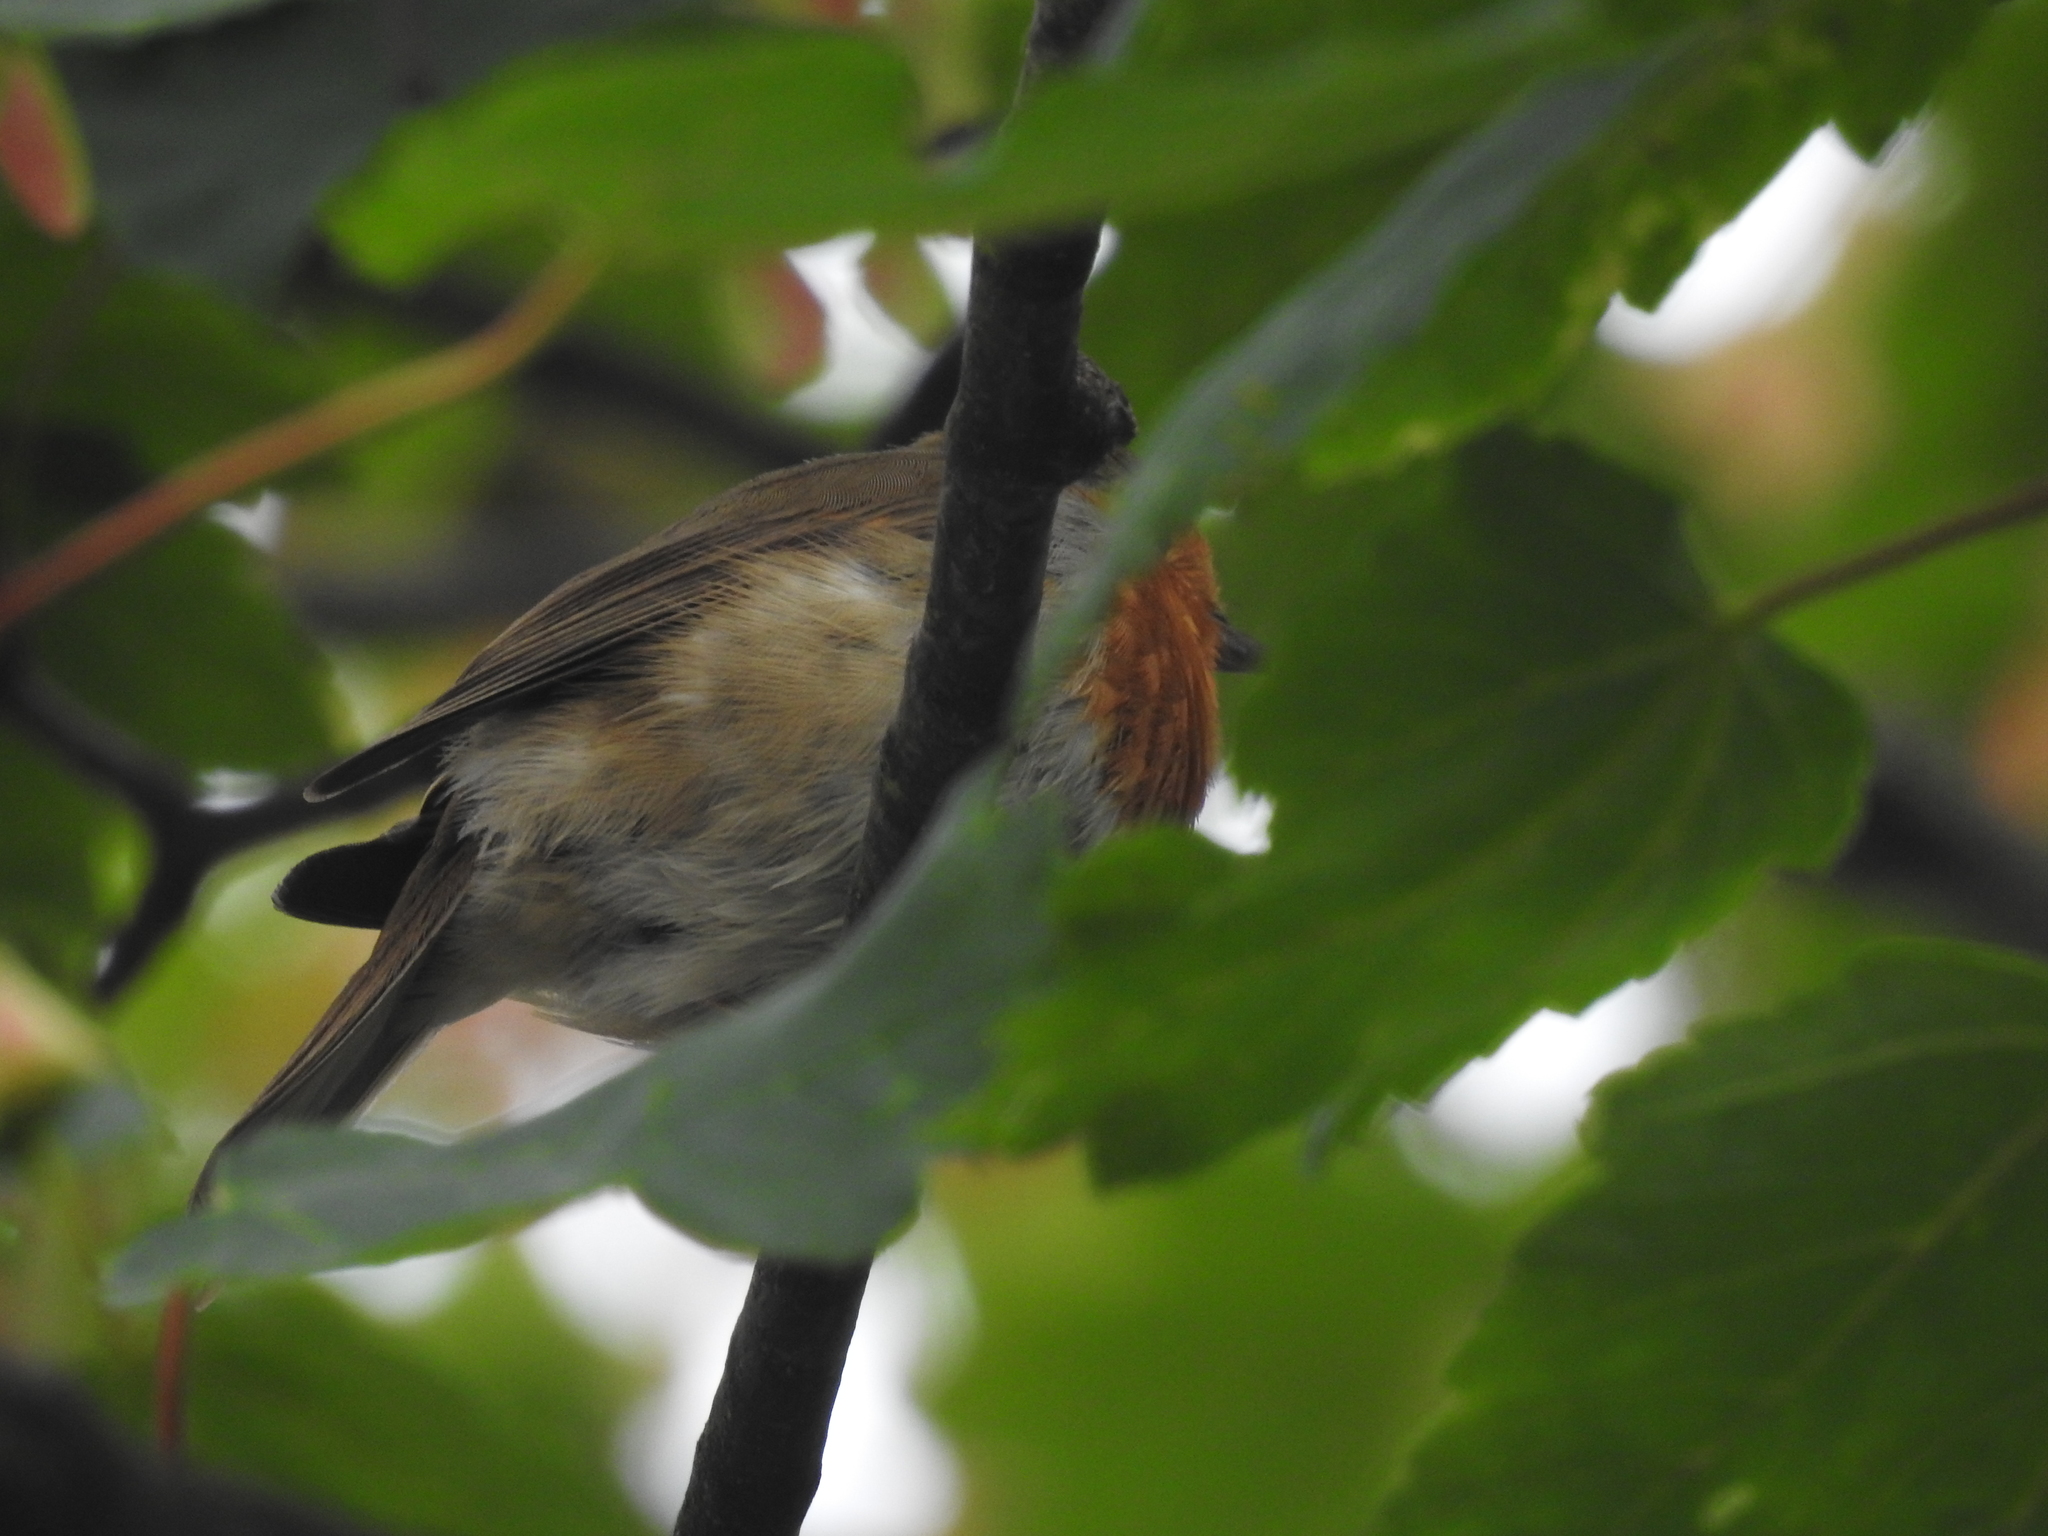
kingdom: Animalia
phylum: Chordata
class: Aves
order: Passeriformes
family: Muscicapidae
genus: Erithacus
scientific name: Erithacus rubecula
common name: European robin
